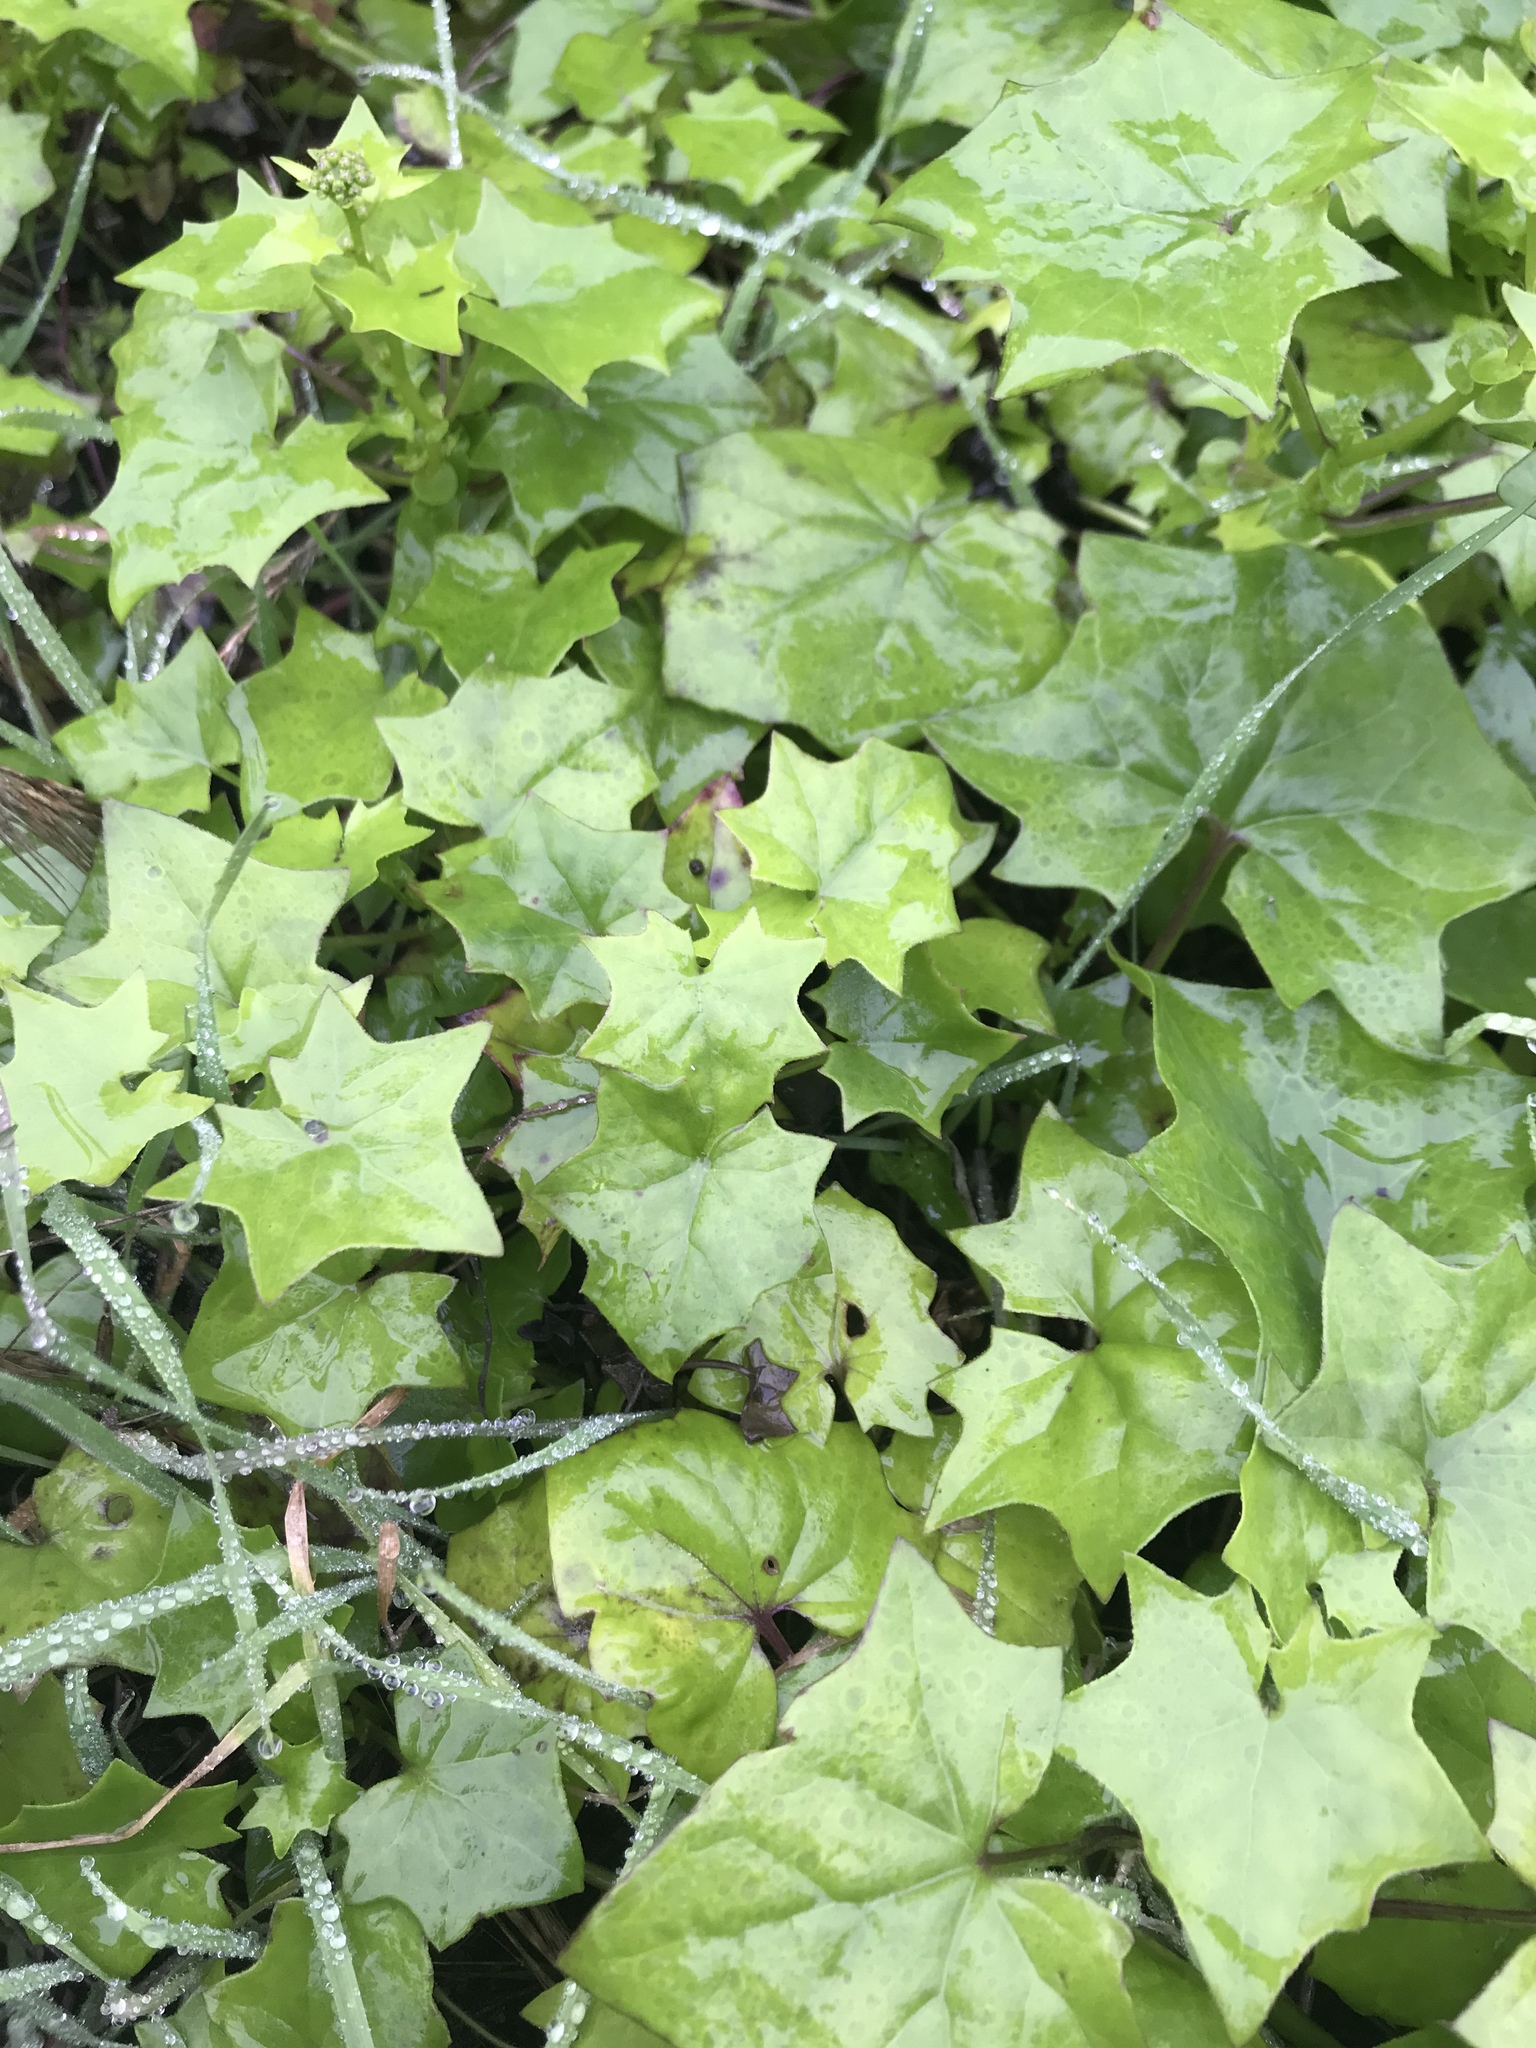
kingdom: Plantae
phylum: Tracheophyta
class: Magnoliopsida
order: Asterales
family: Asteraceae
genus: Delairea
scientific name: Delairea odorata
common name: Cape-ivy
